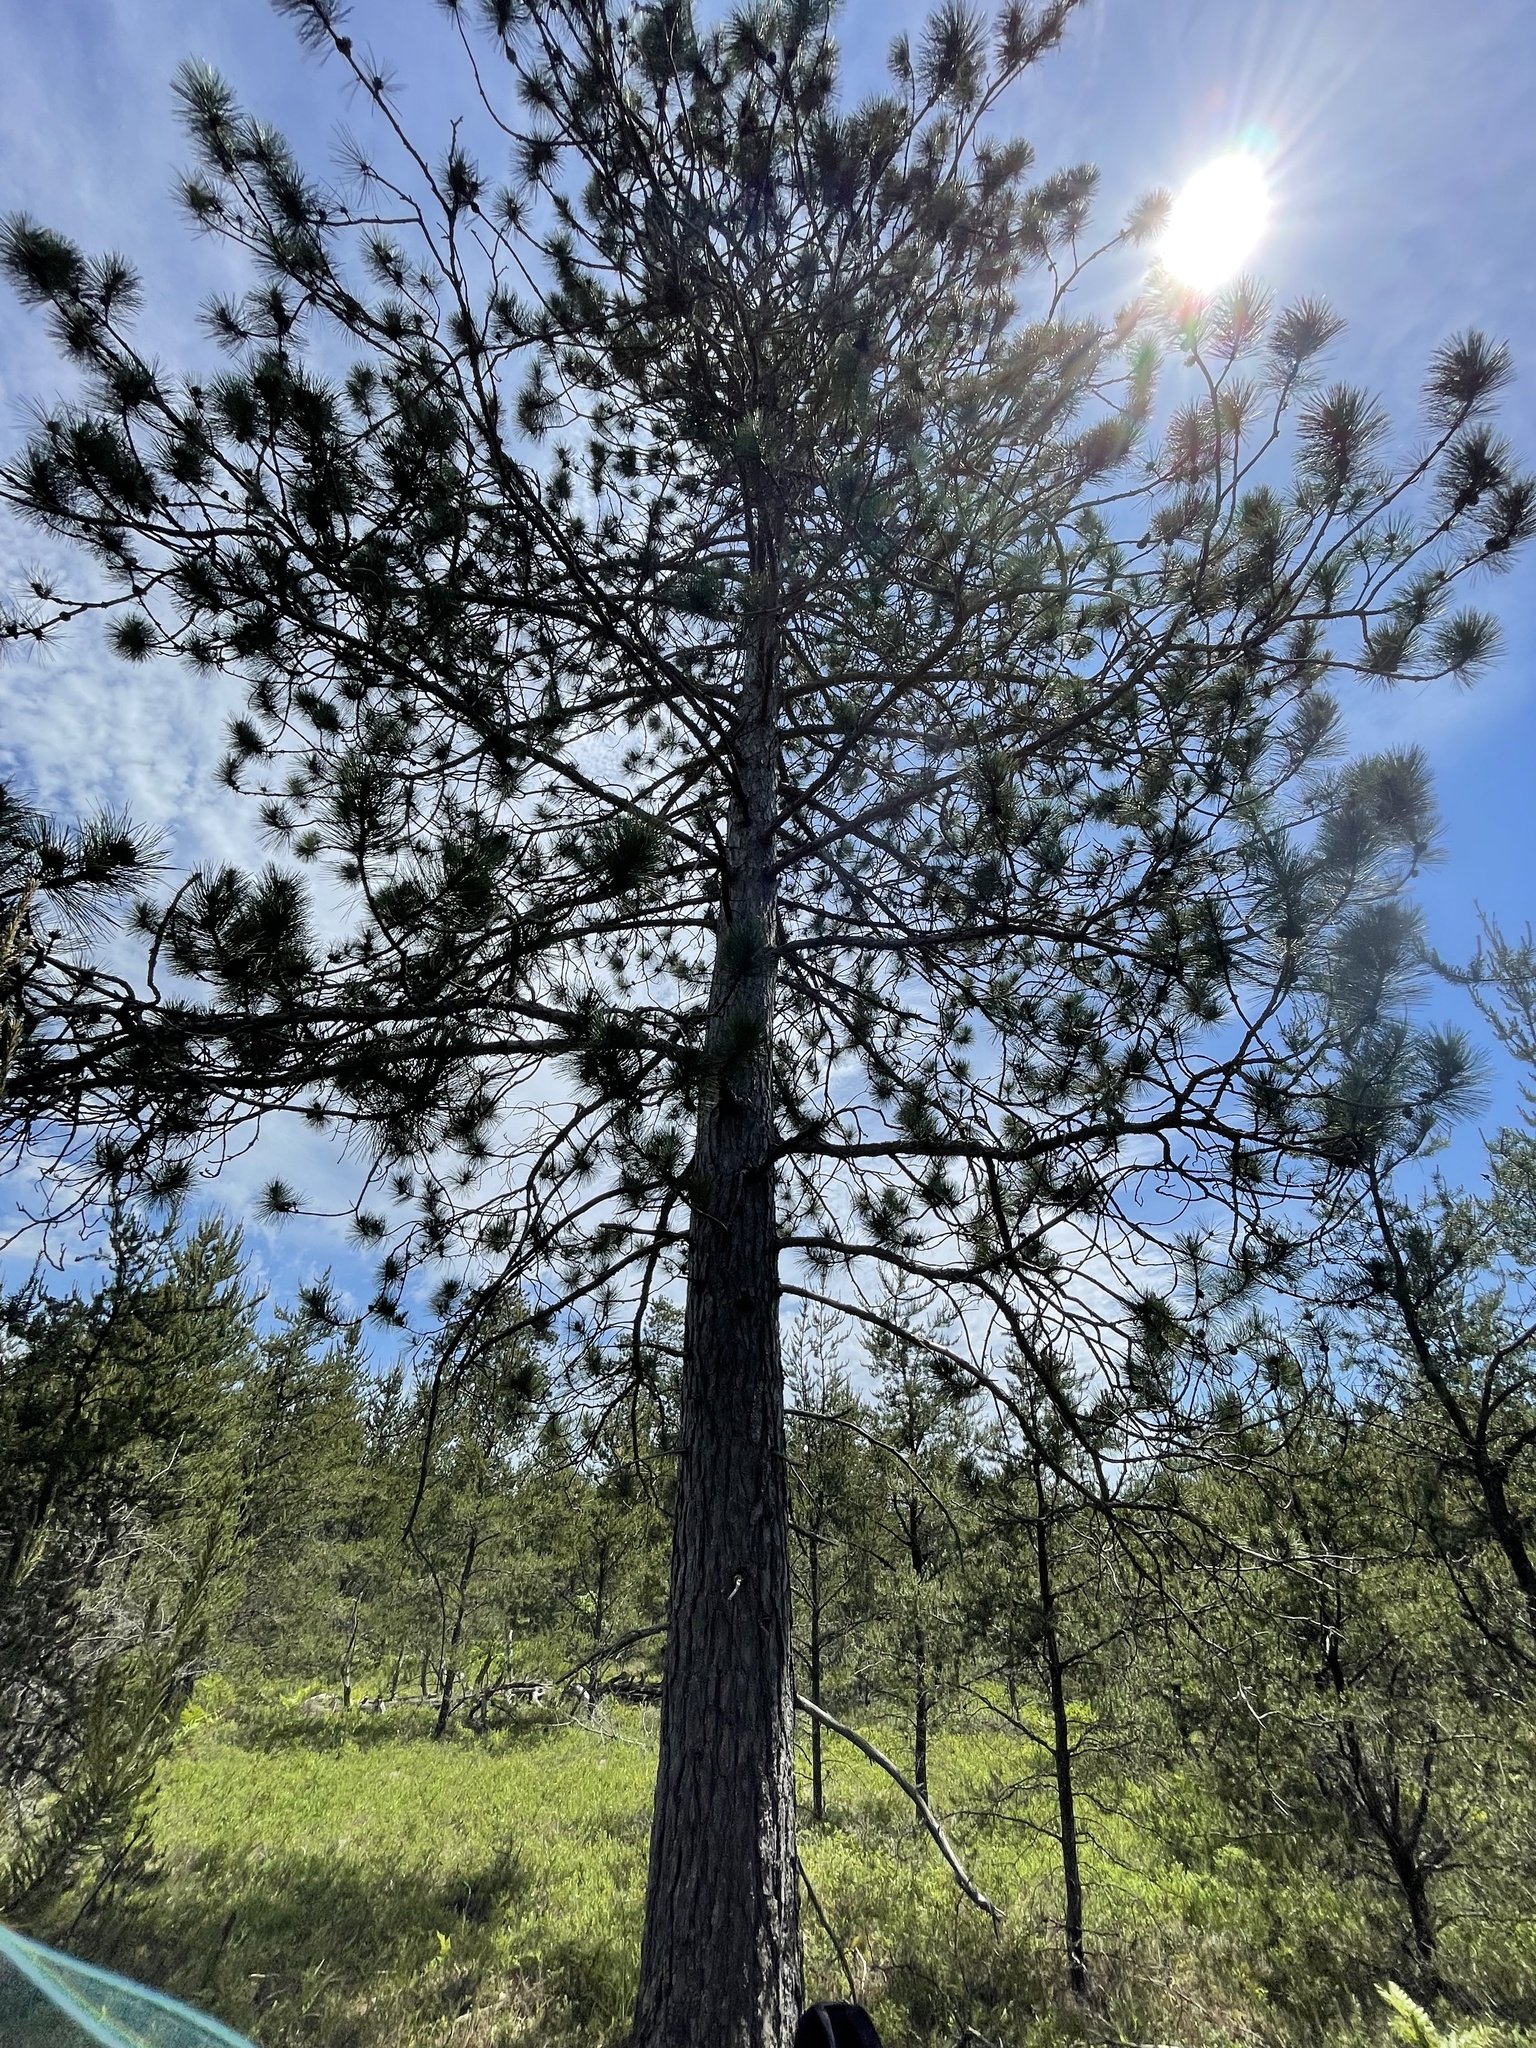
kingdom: Plantae
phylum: Tracheophyta
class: Pinopsida
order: Pinales
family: Pinaceae
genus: Pinus
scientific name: Pinus resinosa
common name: Norway pine
